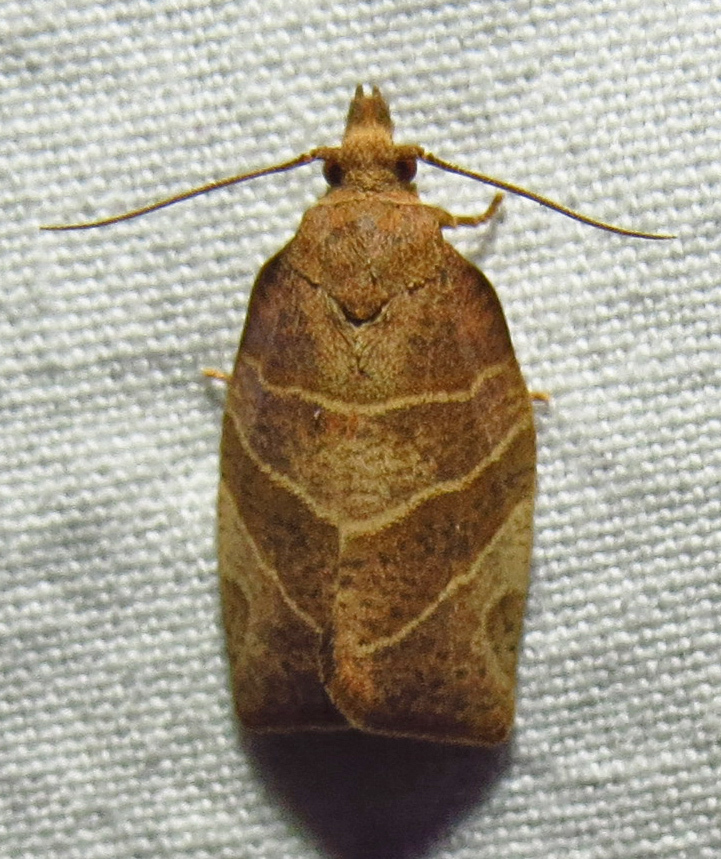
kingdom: Animalia
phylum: Arthropoda
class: Insecta
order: Lepidoptera
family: Tortricidae
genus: Pandemis
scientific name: Pandemis limitata
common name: Three-lined leafroller moth
